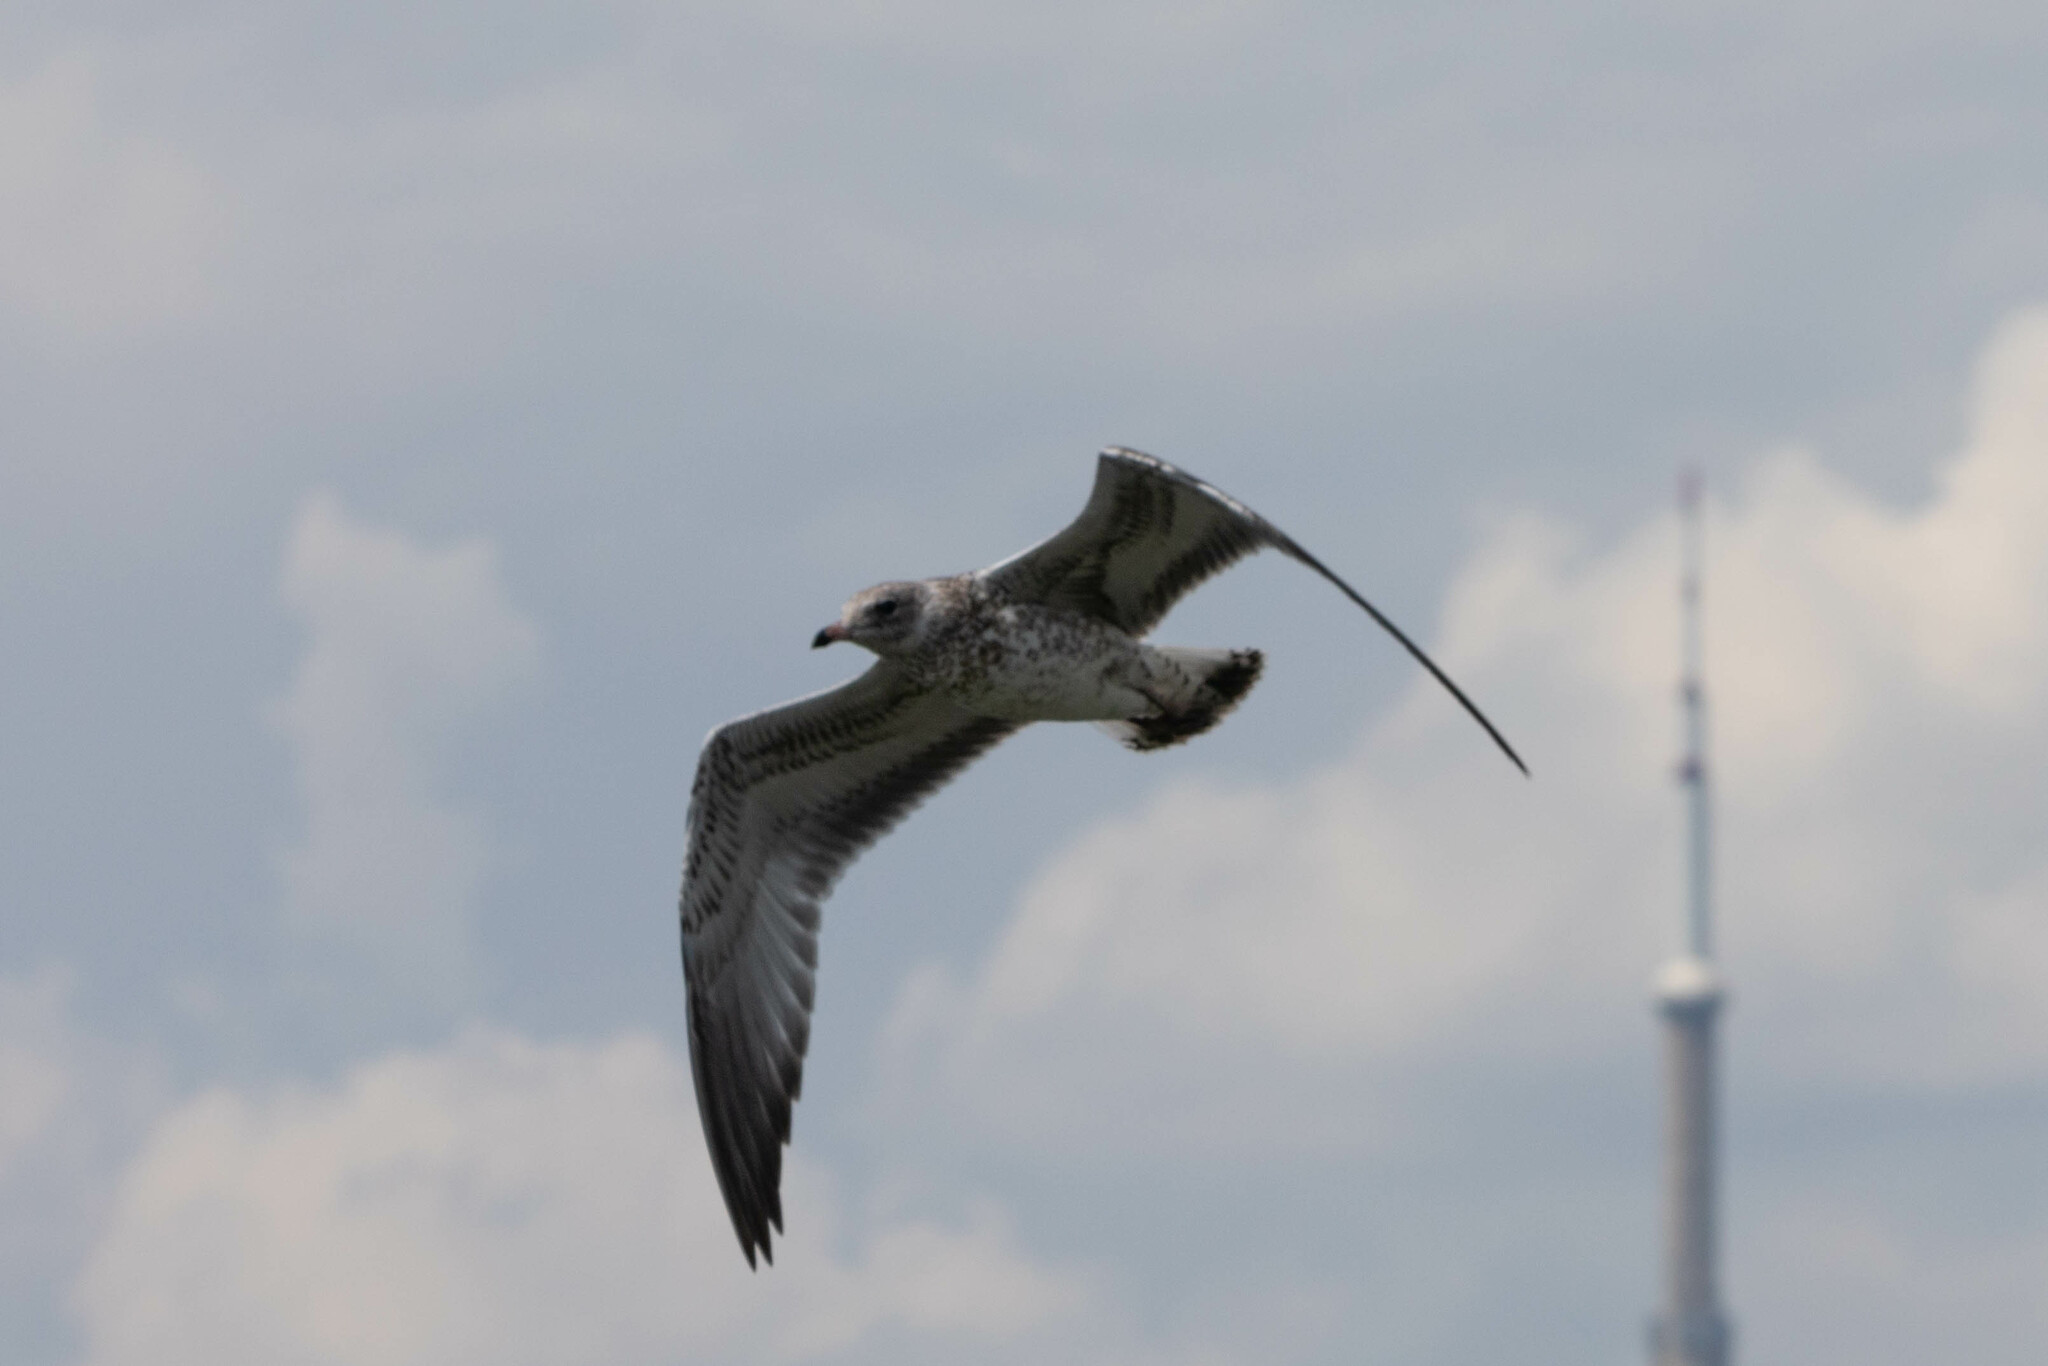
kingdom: Animalia
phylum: Chordata
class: Aves
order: Charadriiformes
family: Laridae
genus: Larus
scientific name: Larus delawarensis
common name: Ring-billed gull
